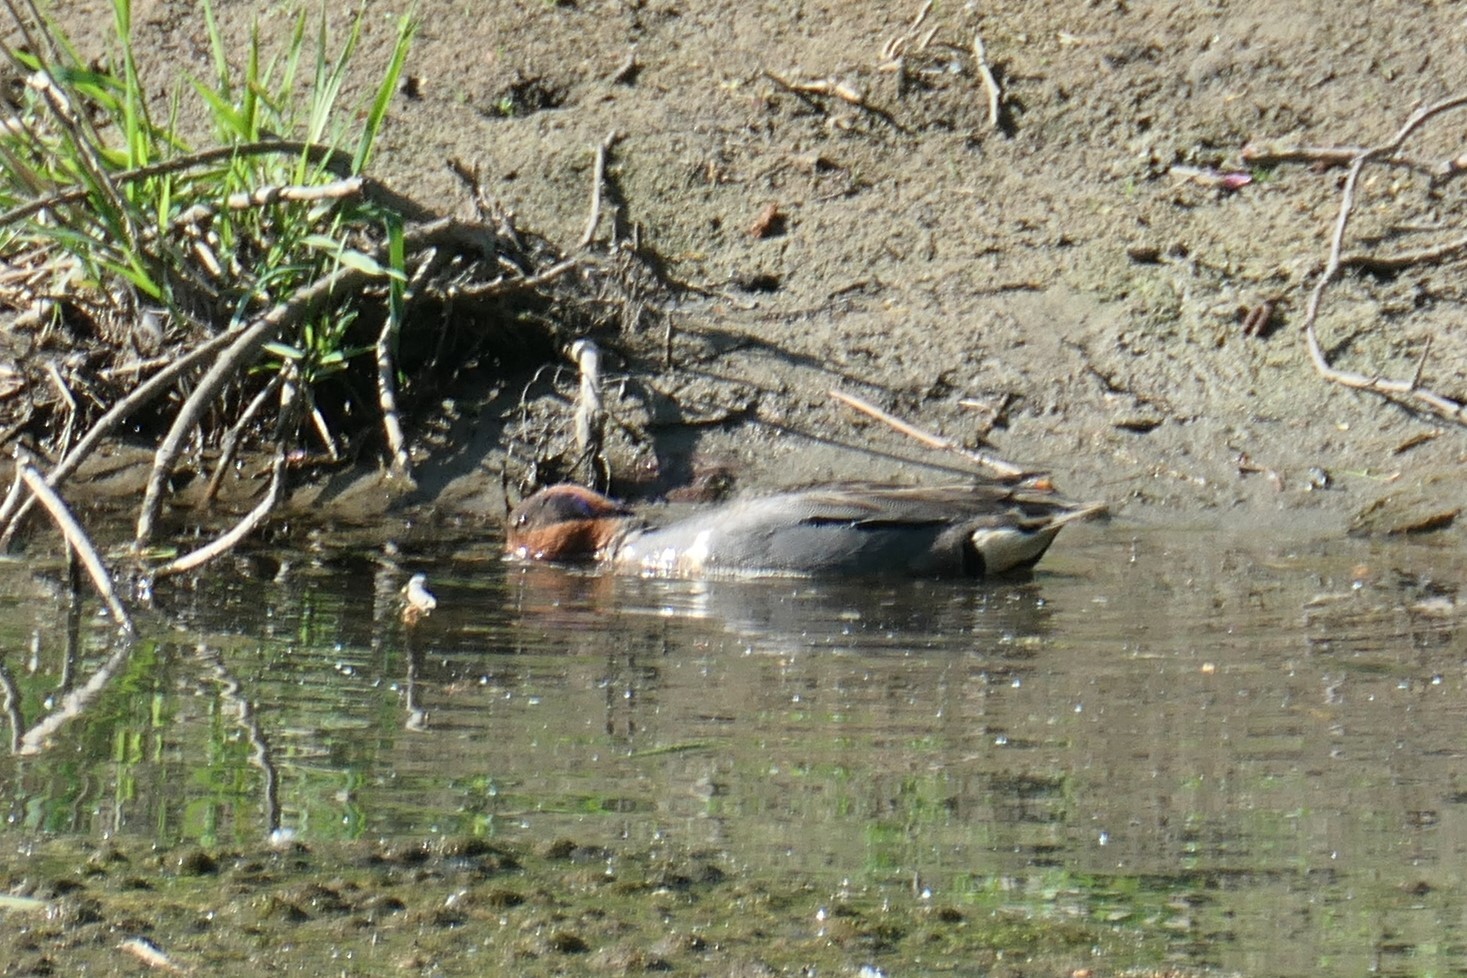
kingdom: Animalia
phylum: Chordata
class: Aves
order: Anseriformes
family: Anatidae
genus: Anas
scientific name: Anas crecca
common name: Eurasian teal
